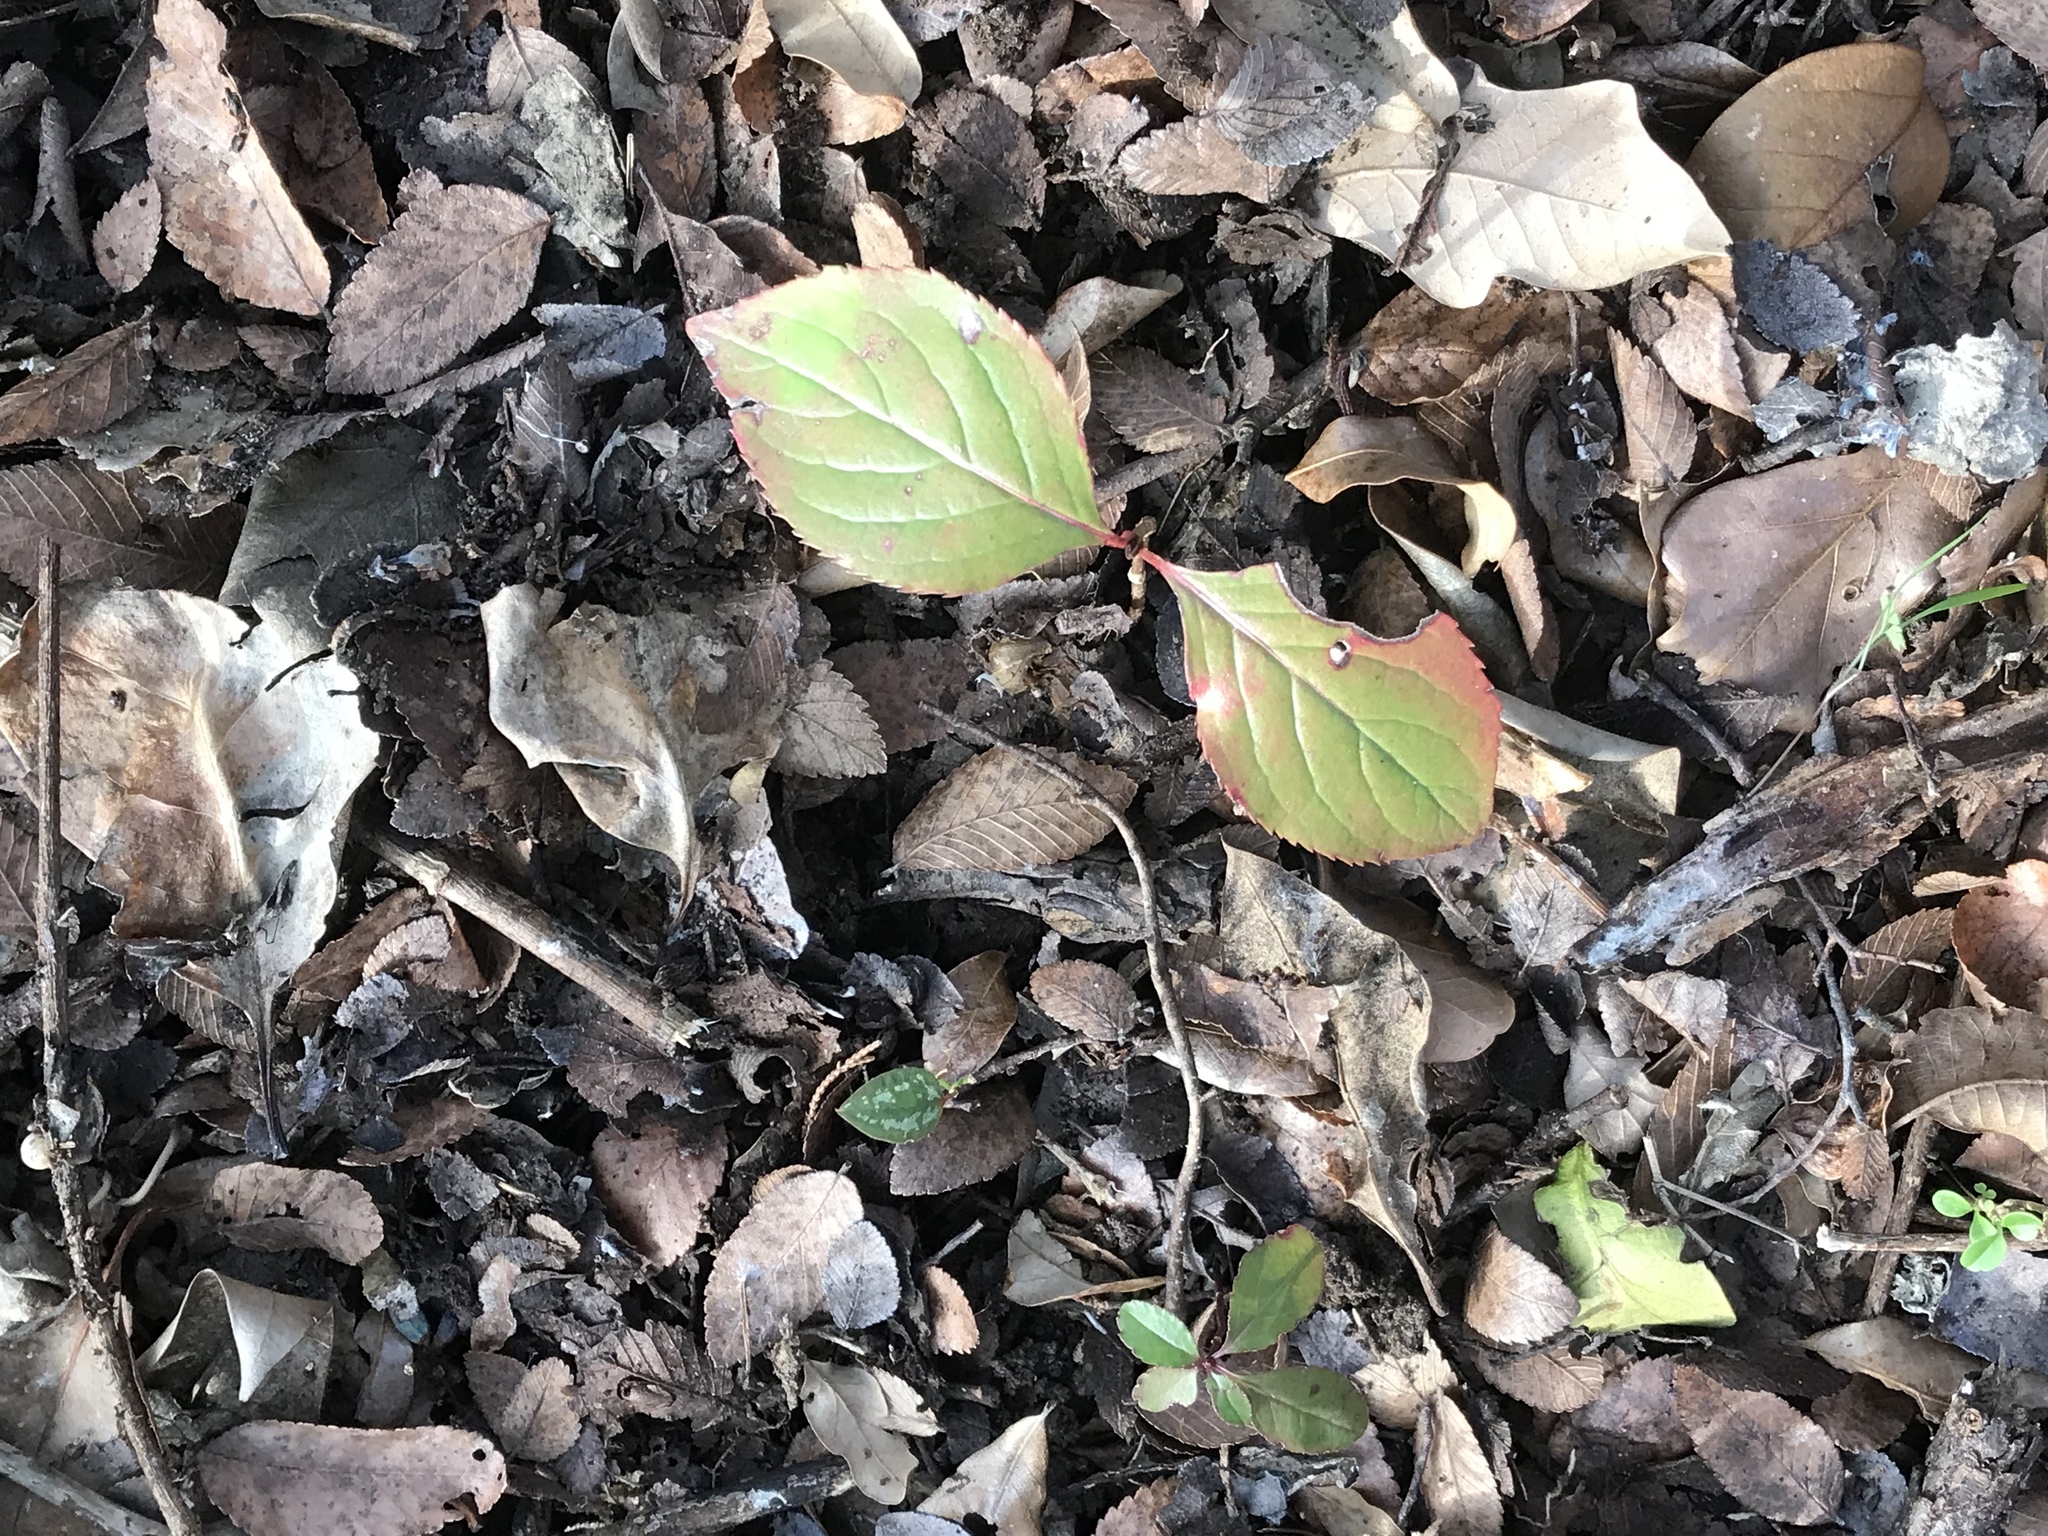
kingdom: Plantae
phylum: Tracheophyta
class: Magnoliopsida
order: Dipsacales
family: Viburnaceae
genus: Viburnum
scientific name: Viburnum rufidulum
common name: Blue haw
